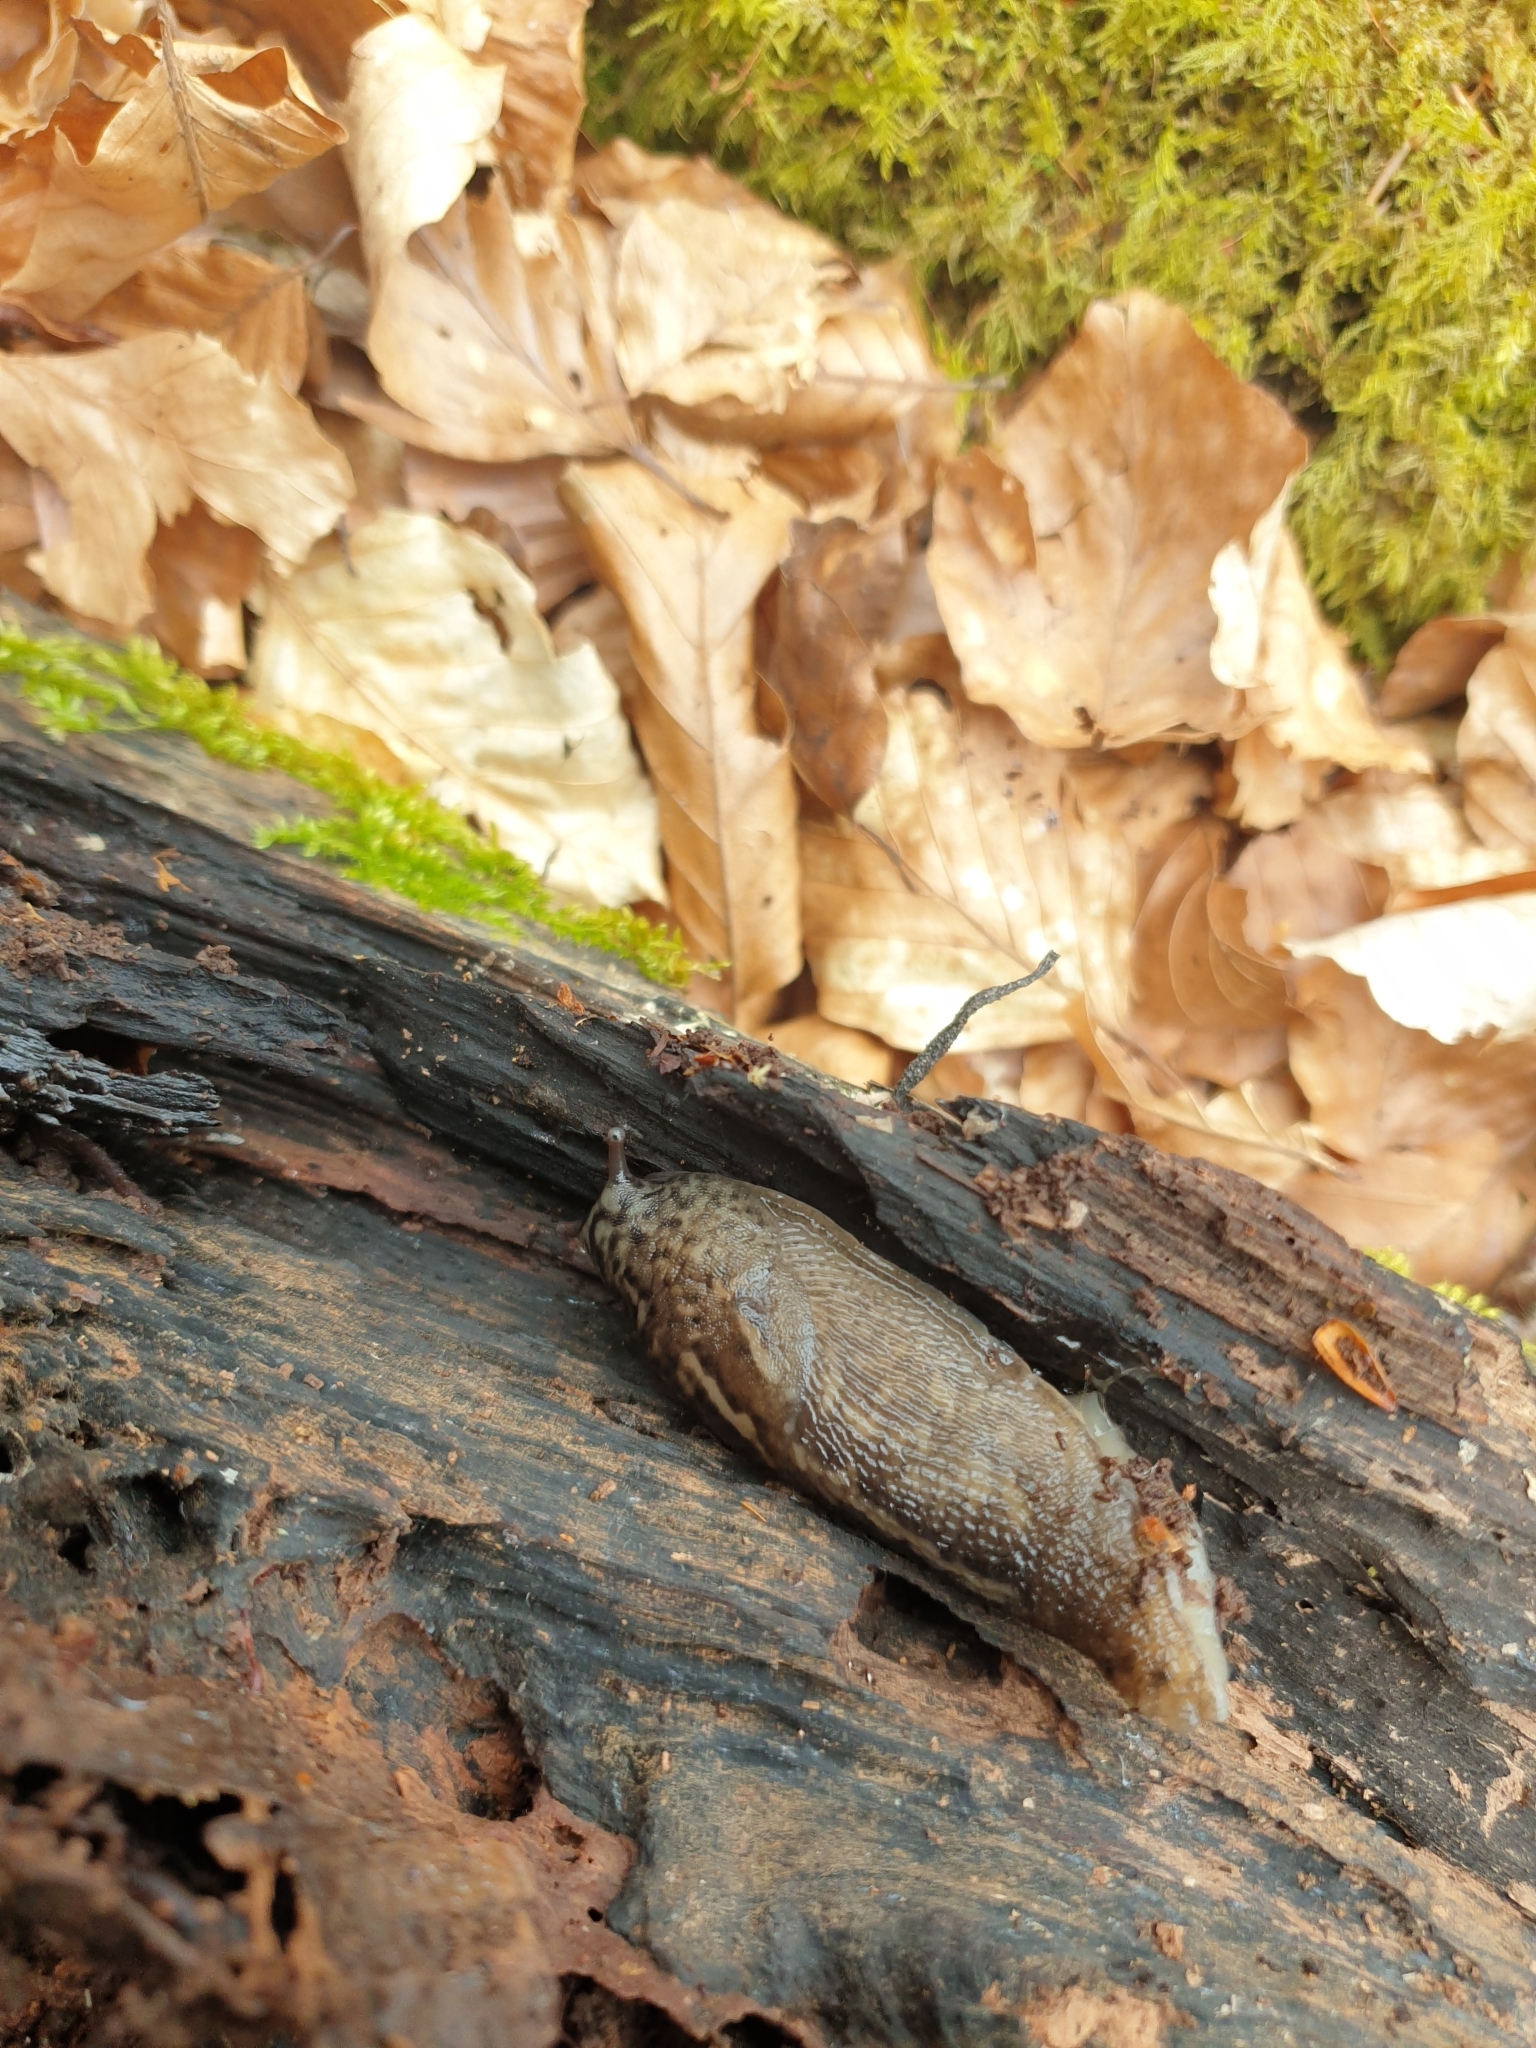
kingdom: Animalia
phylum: Mollusca
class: Gastropoda
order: Stylommatophora
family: Limacidae
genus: Limax
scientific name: Limax maximus
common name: Great grey slug
